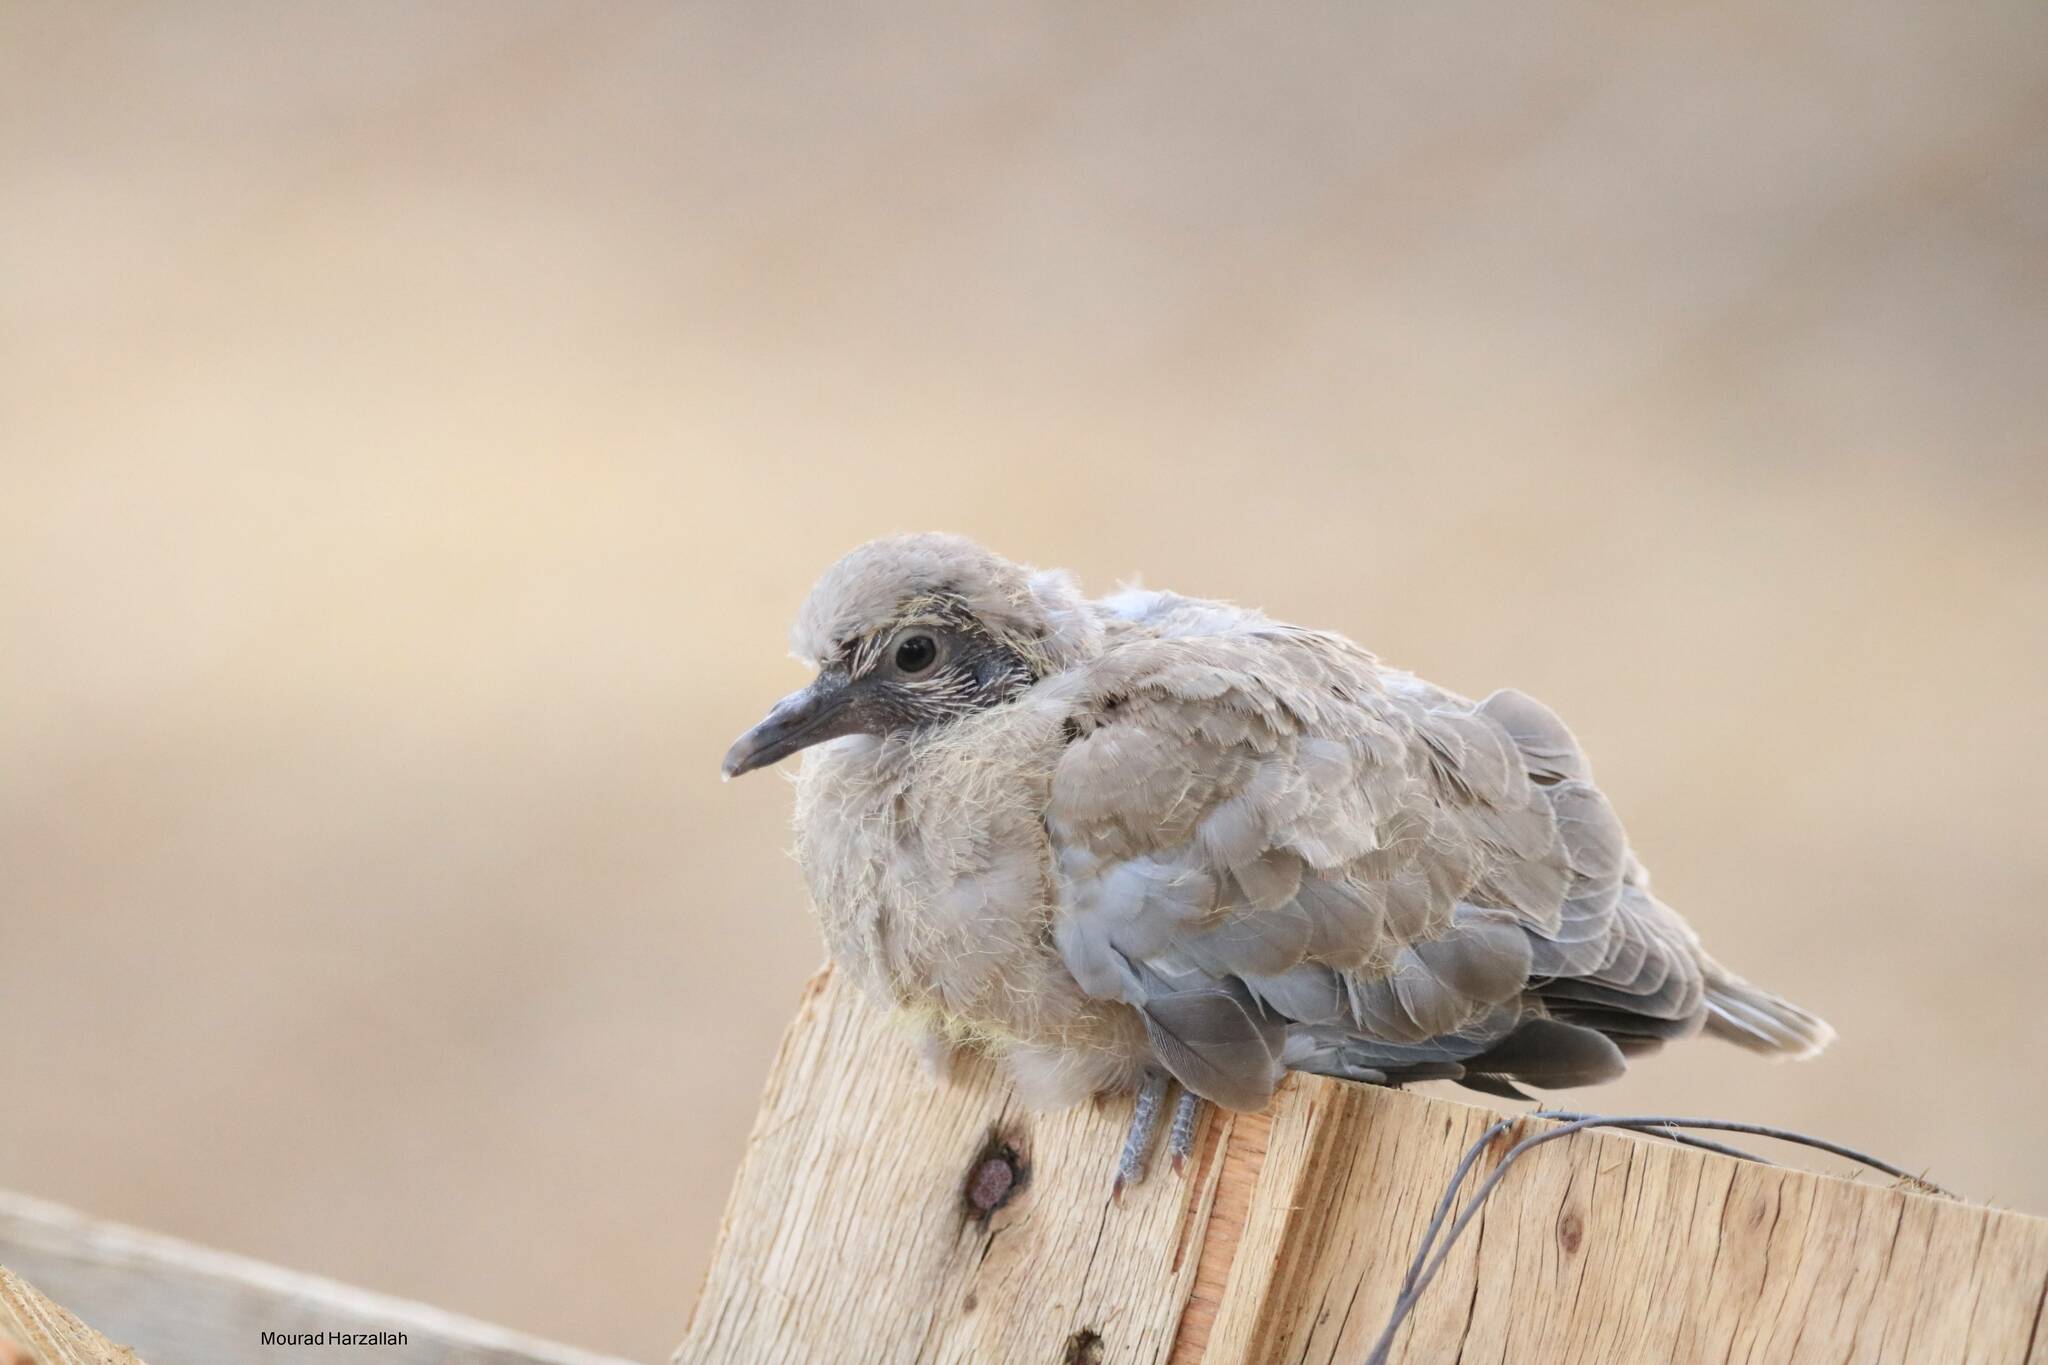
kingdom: Animalia
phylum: Chordata
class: Aves
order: Columbiformes
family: Columbidae
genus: Streptopelia
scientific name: Streptopelia decaocto
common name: Eurasian collared dove
